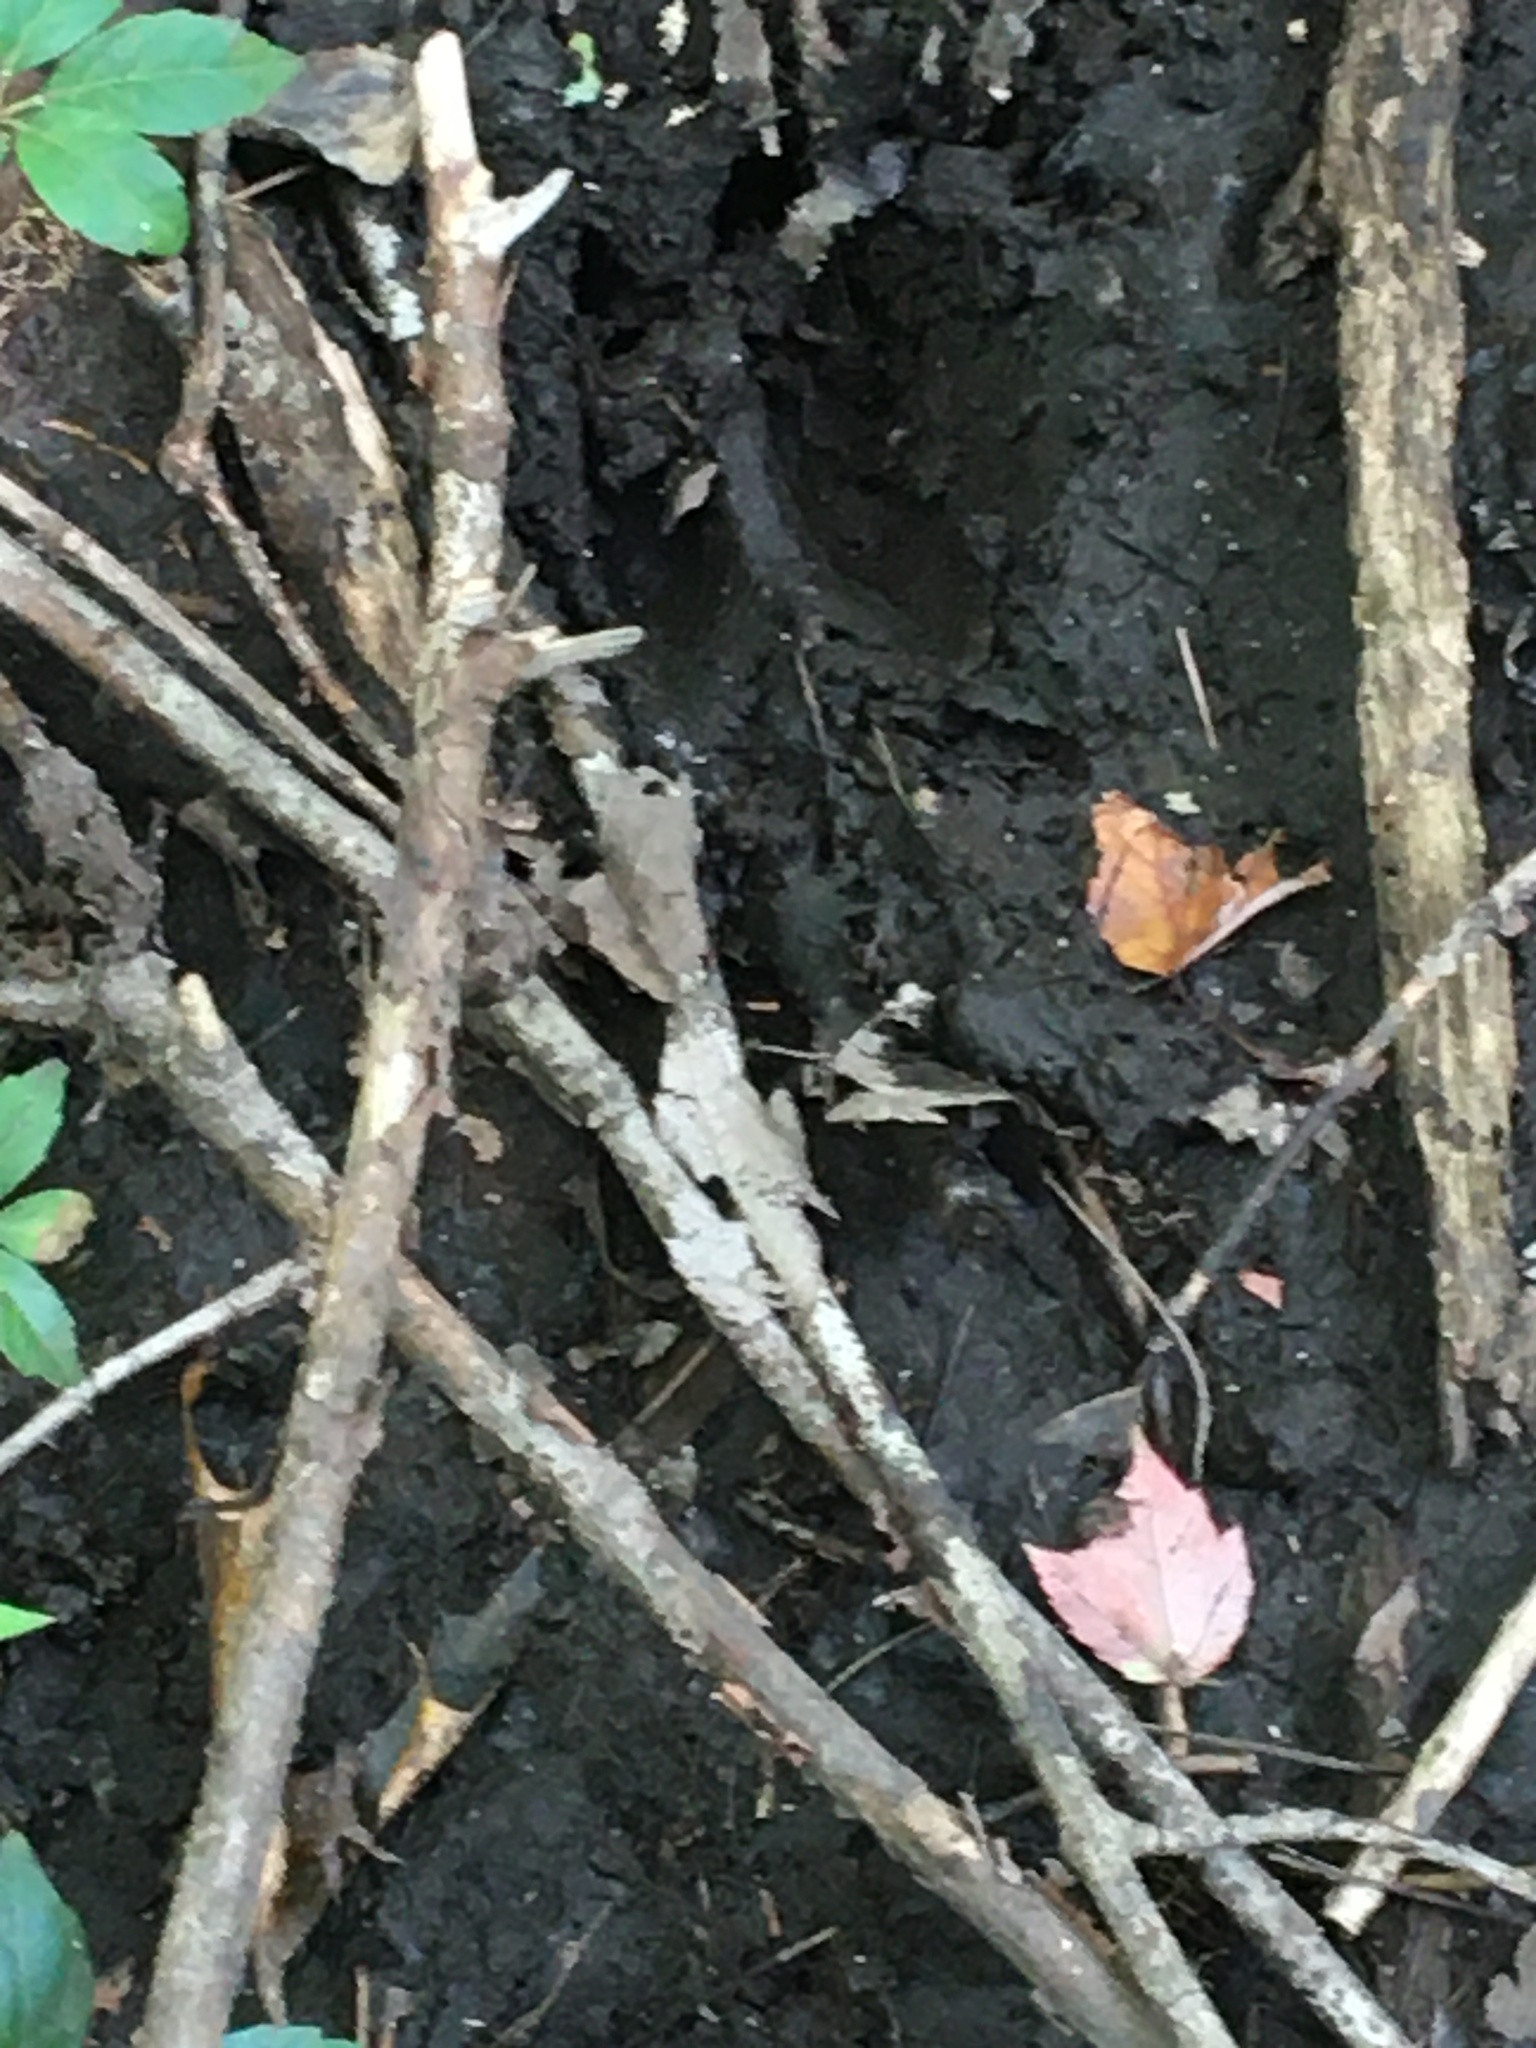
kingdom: Animalia
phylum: Chordata
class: Mammalia
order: Artiodactyla
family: Cervidae
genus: Odocoileus
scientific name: Odocoileus virginianus
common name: White-tailed deer
